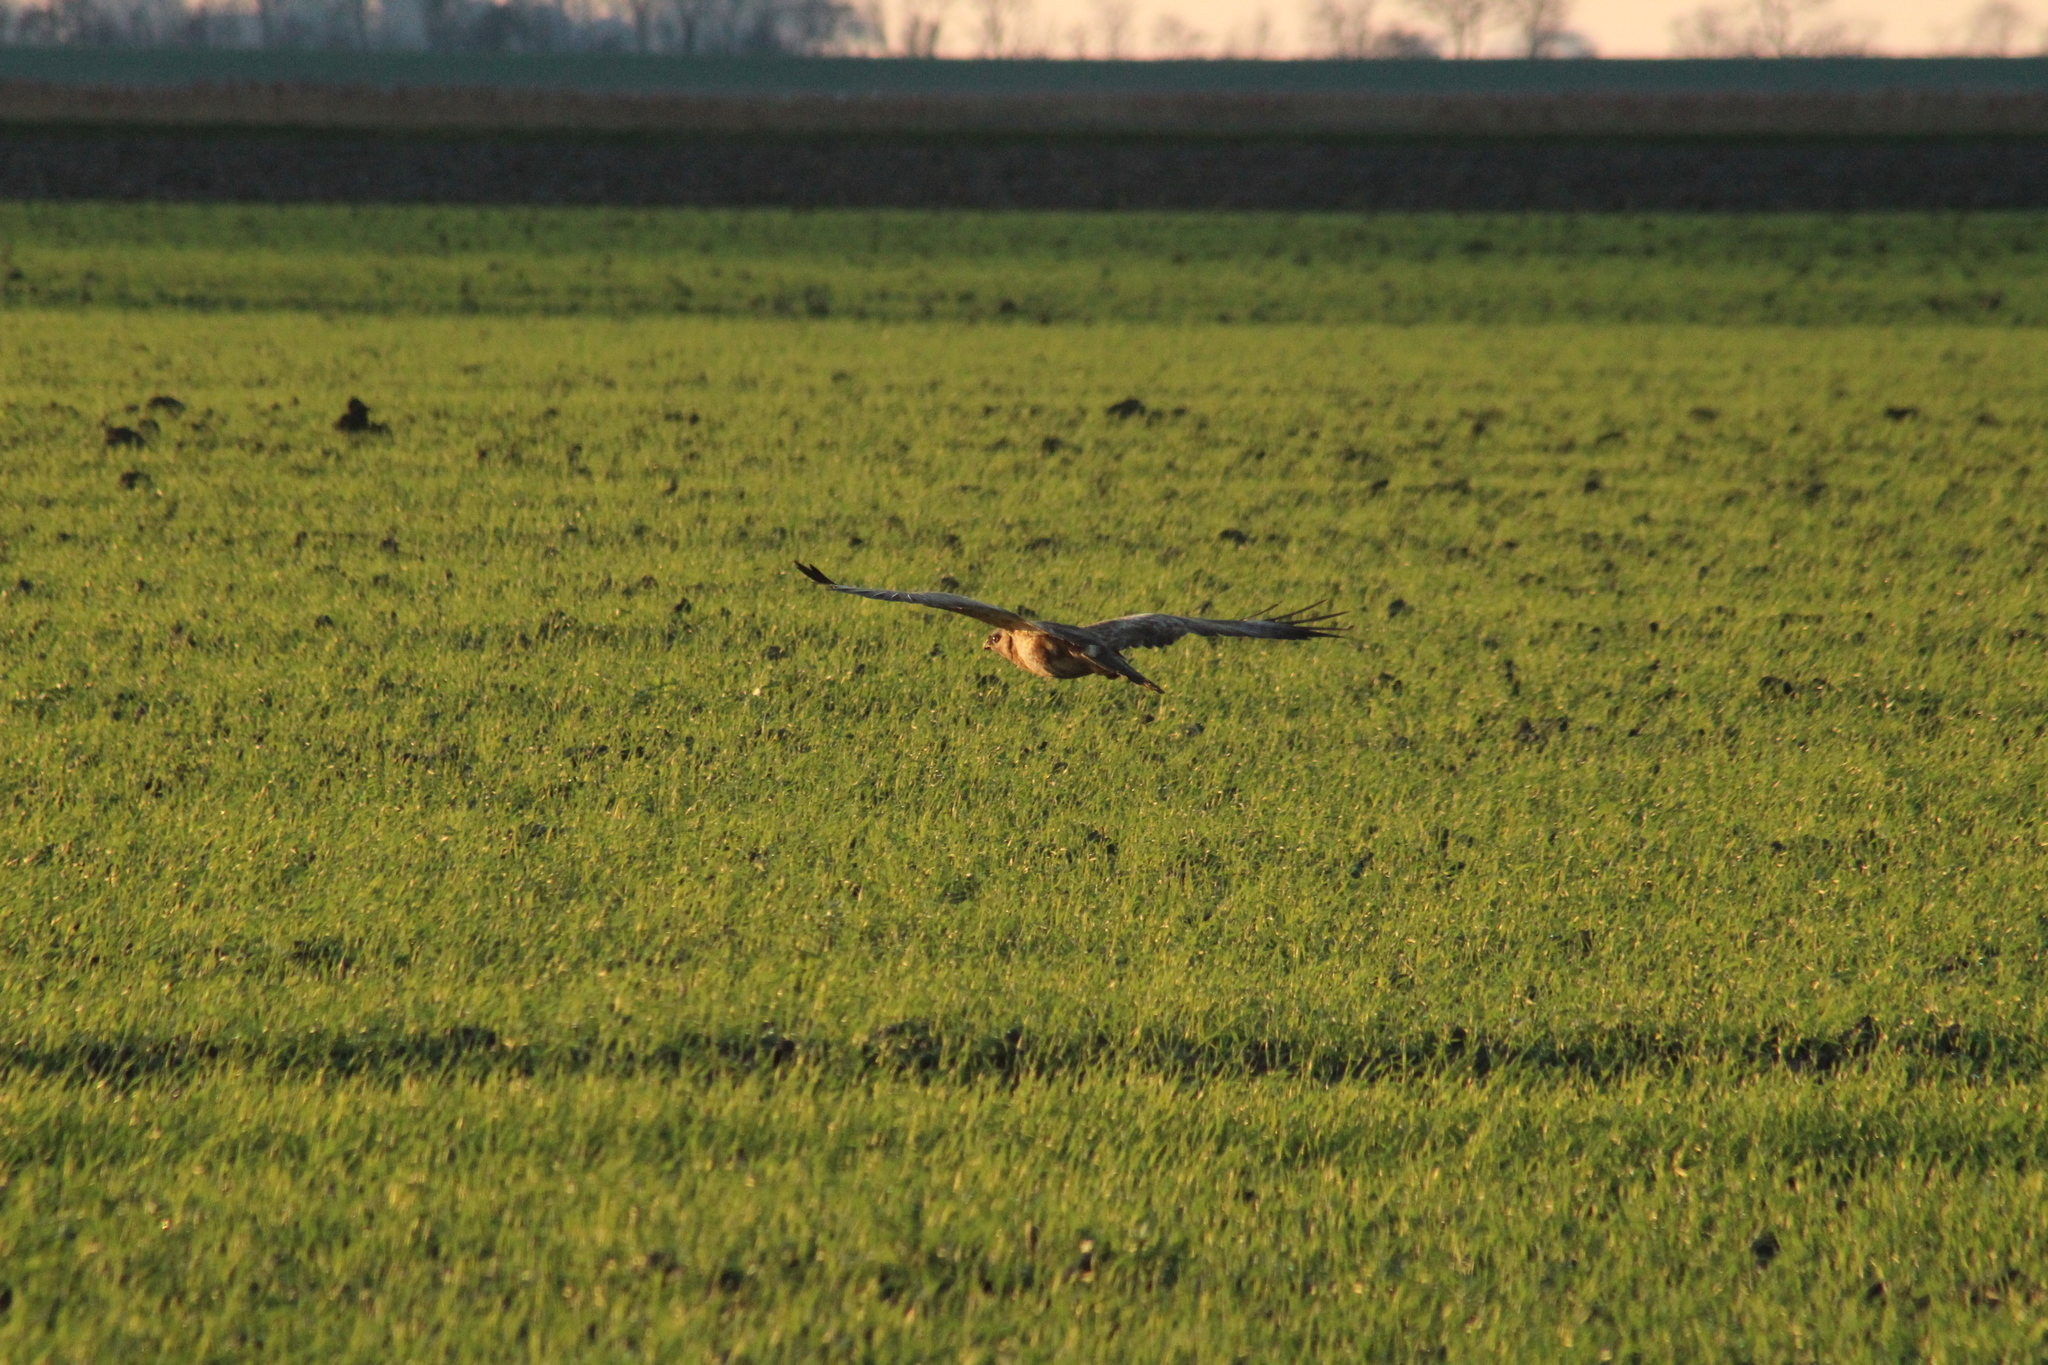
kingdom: Animalia
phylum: Chordata
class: Aves
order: Accipitriformes
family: Accipitridae
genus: Buteo
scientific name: Buteo buteo
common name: Common buzzard
